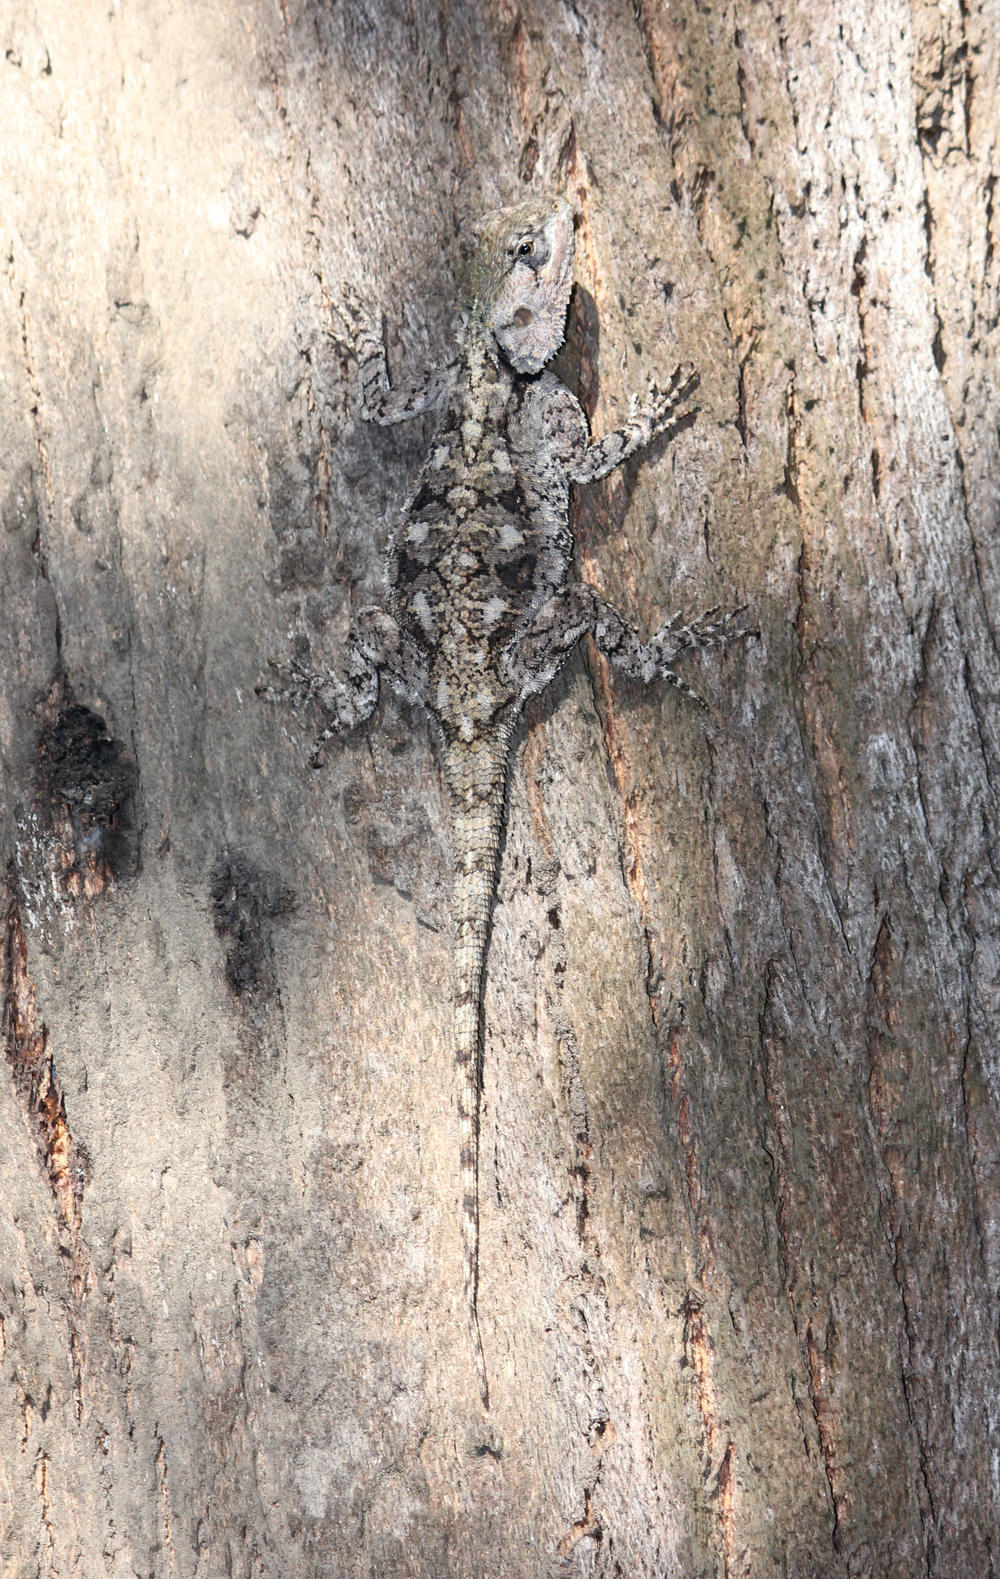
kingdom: Animalia
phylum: Chordata
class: Squamata
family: Agamidae
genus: Acanthocercus
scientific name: Acanthocercus atricollis
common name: Southern tree agama
